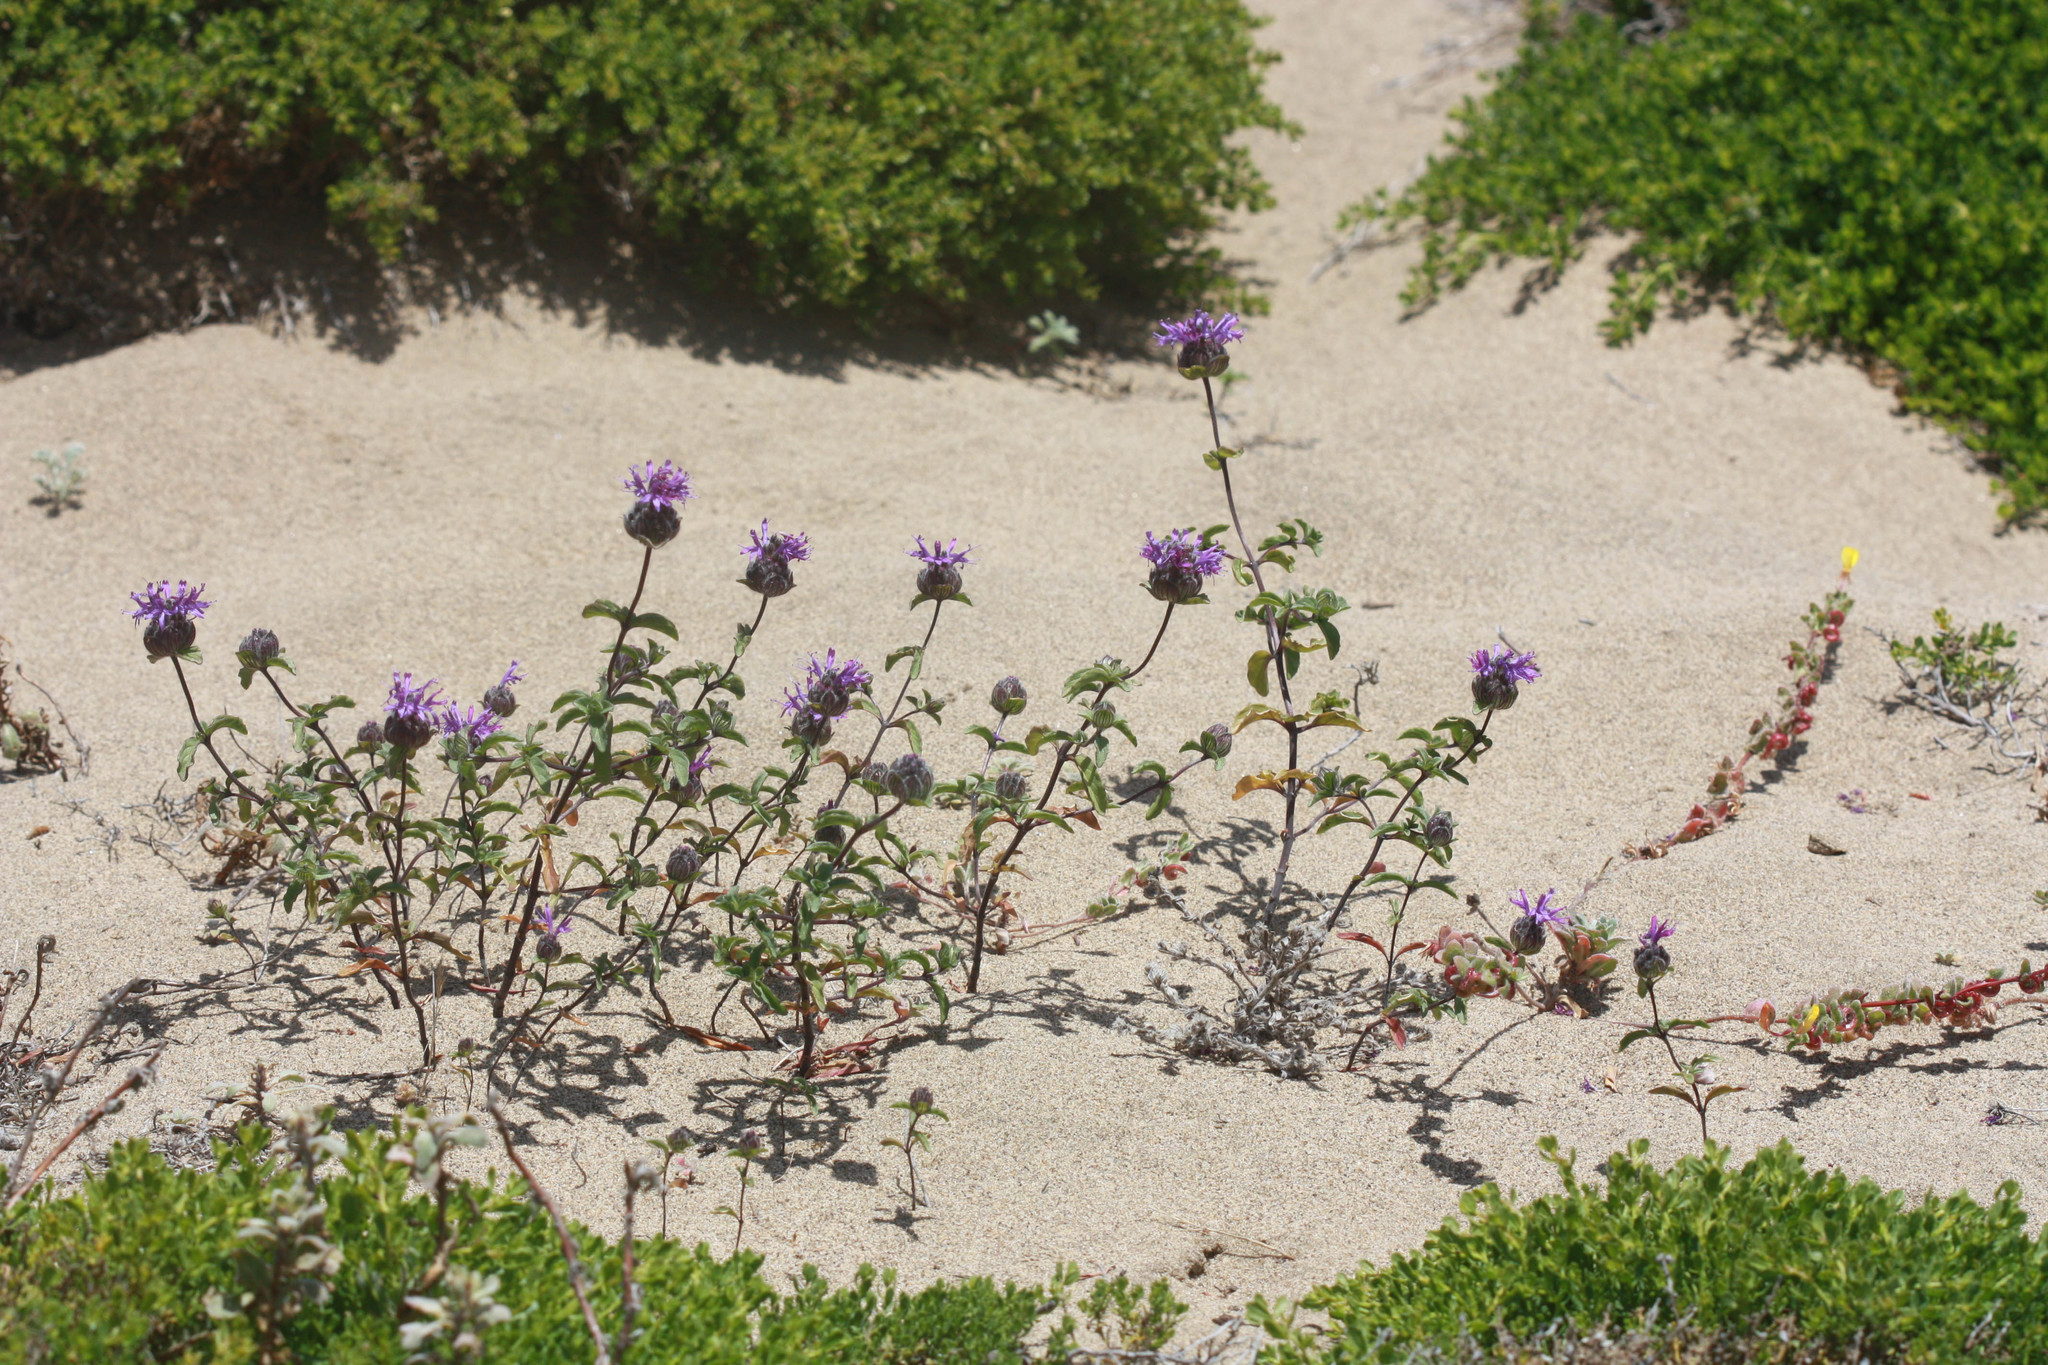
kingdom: Plantae
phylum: Tracheophyta
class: Magnoliopsida
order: Lamiales
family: Lamiaceae
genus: Monardella
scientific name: Monardella sinuata
